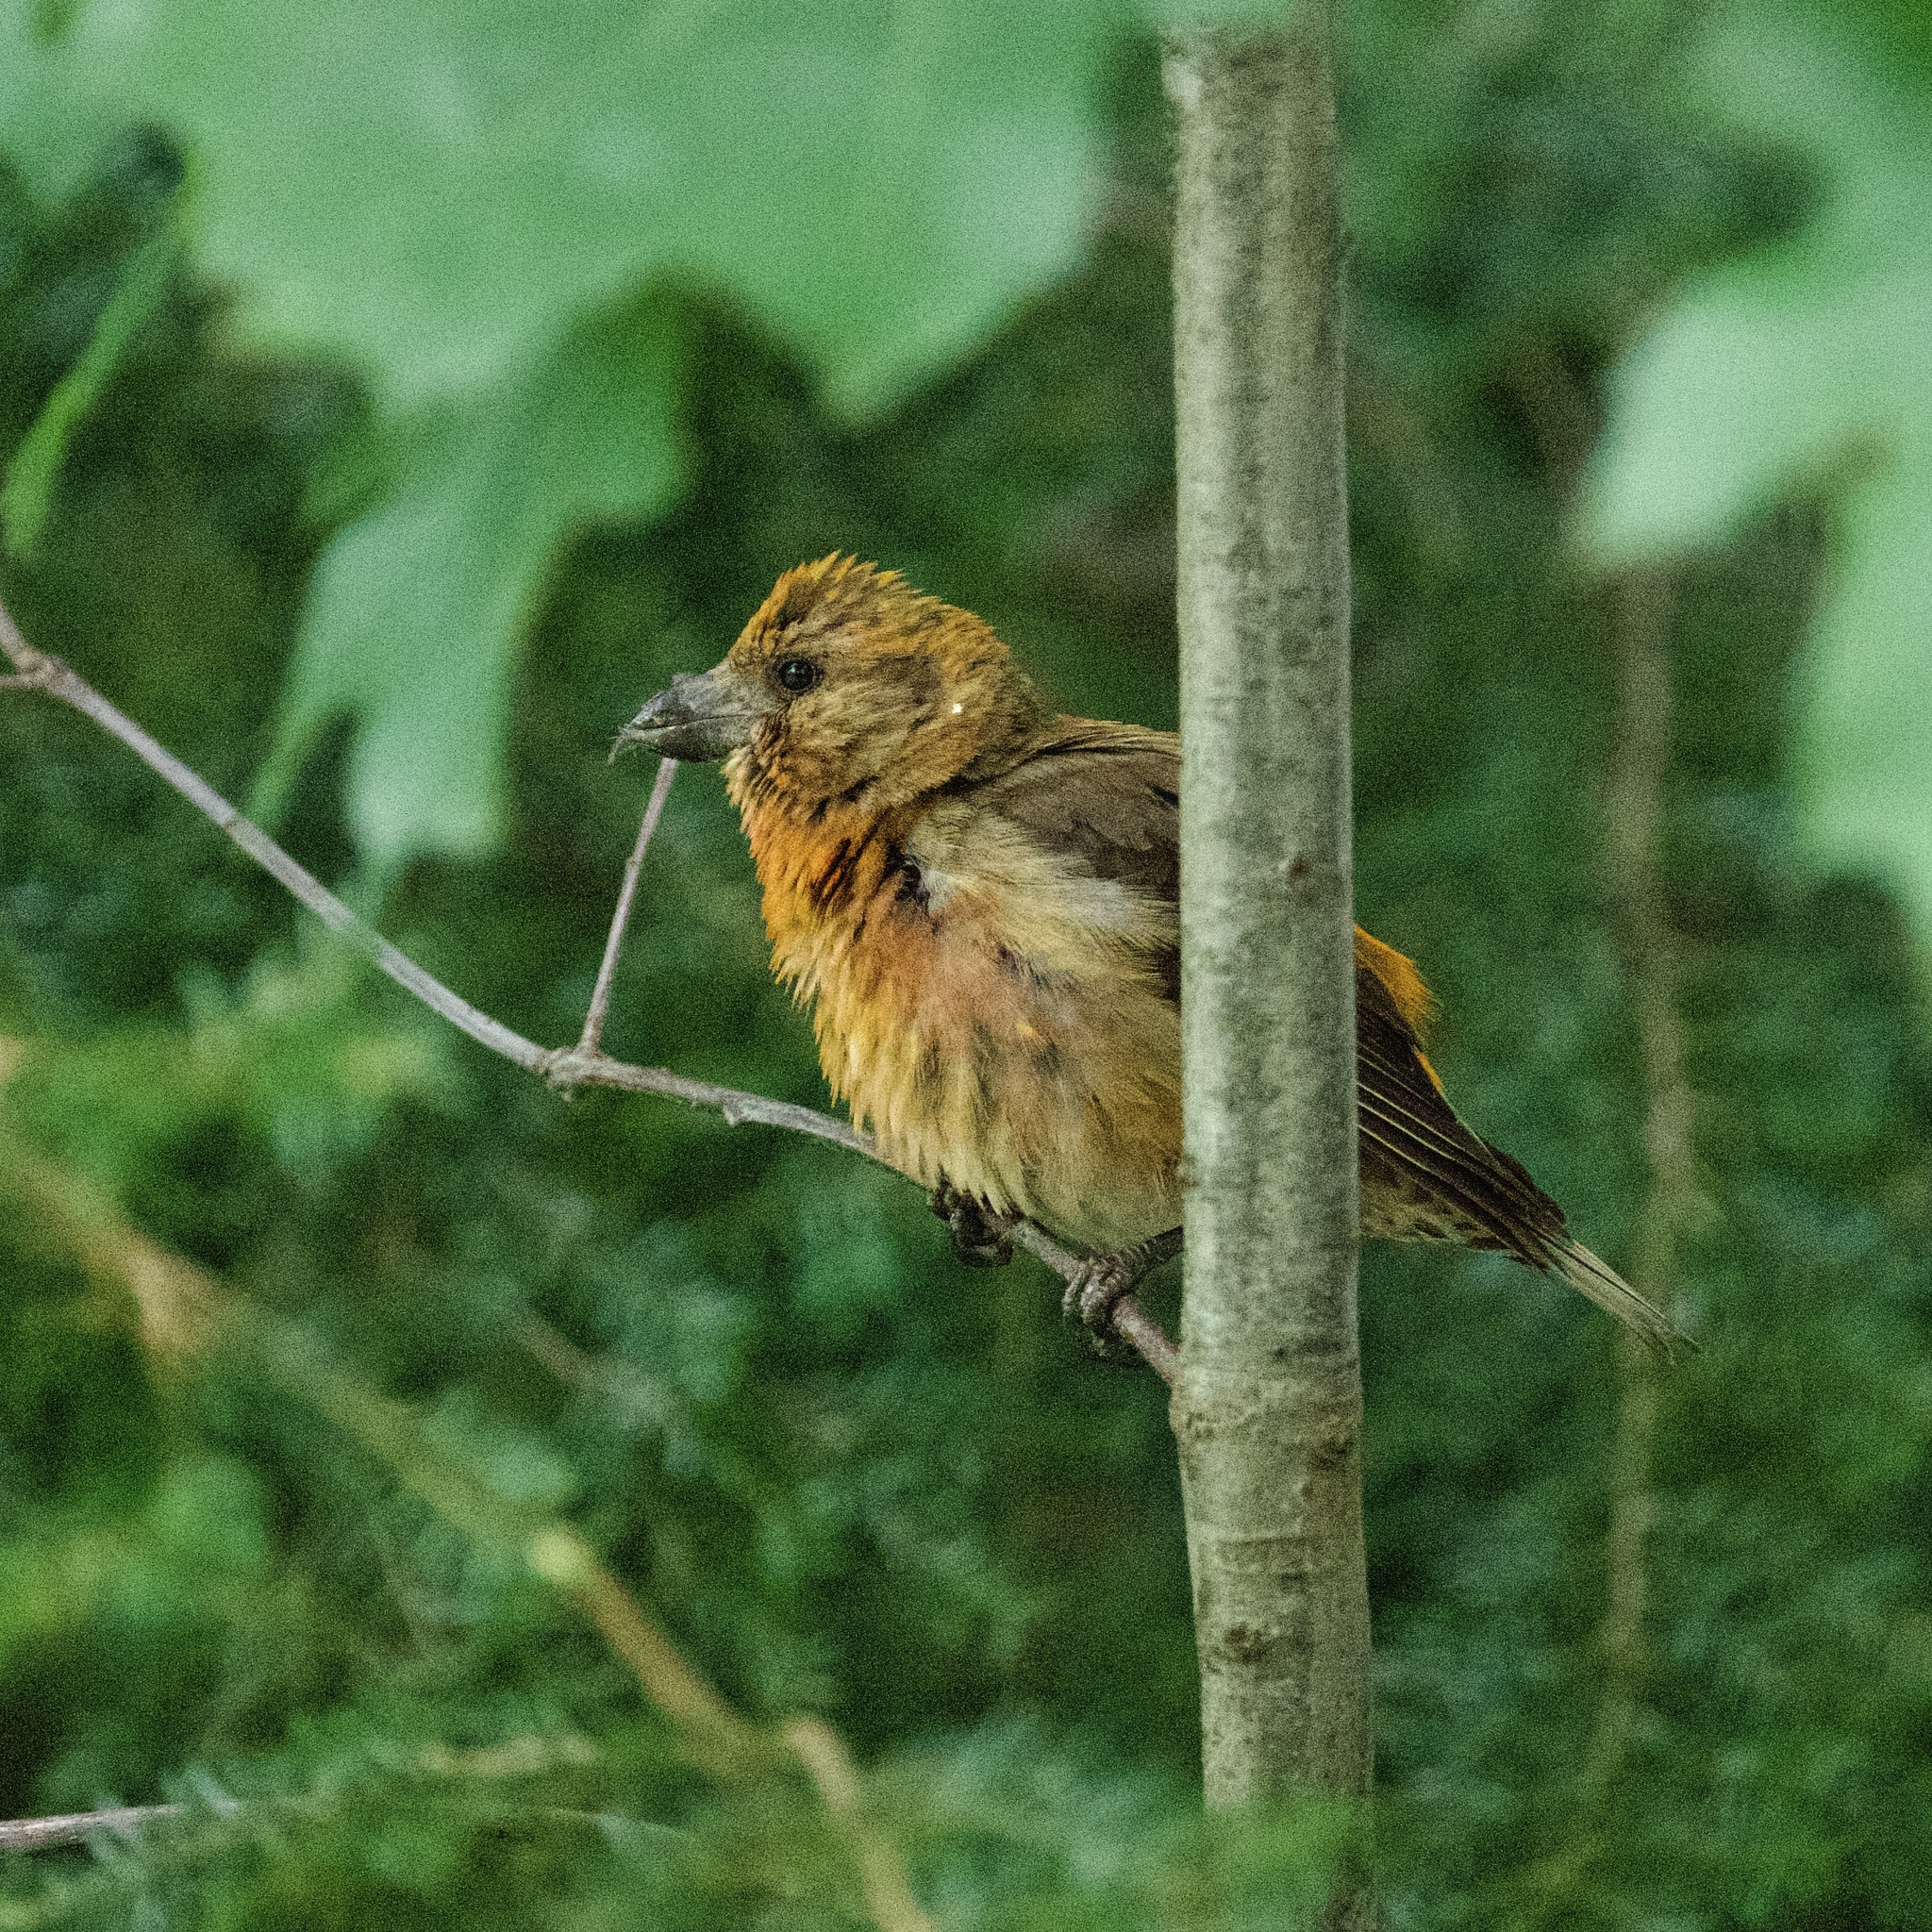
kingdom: Animalia
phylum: Chordata
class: Aves
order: Passeriformes
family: Fringillidae
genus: Loxia
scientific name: Loxia curvirostra
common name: Red crossbill
